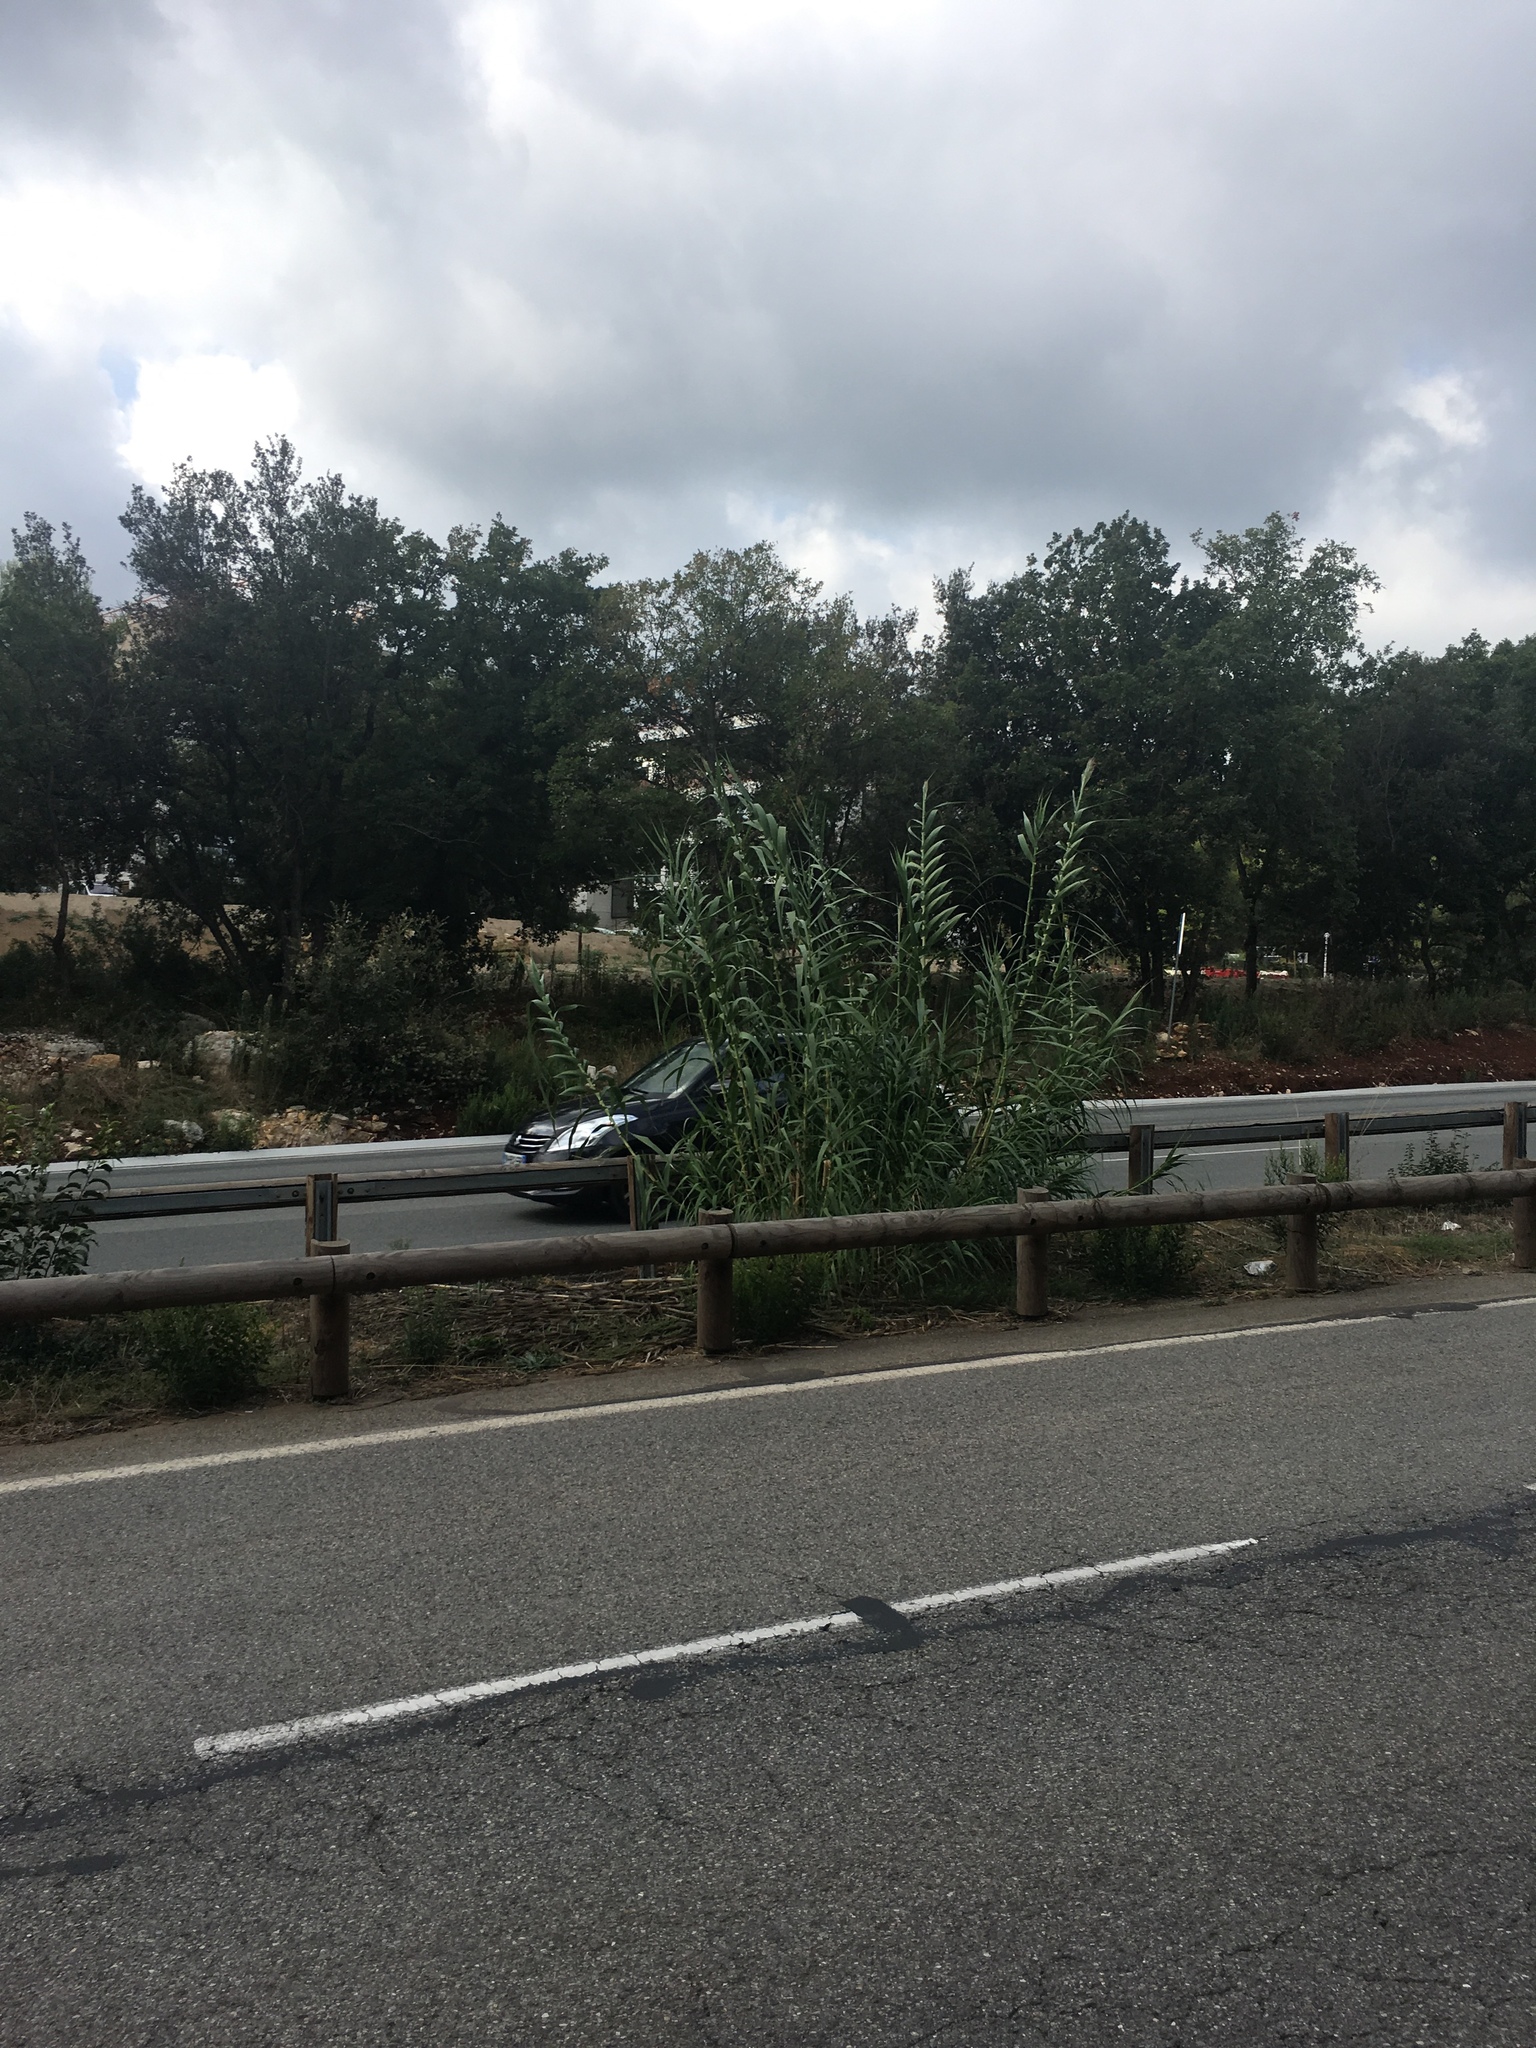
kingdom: Plantae
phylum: Tracheophyta
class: Liliopsida
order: Poales
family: Poaceae
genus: Arundo
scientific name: Arundo donax
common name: Giant reed
